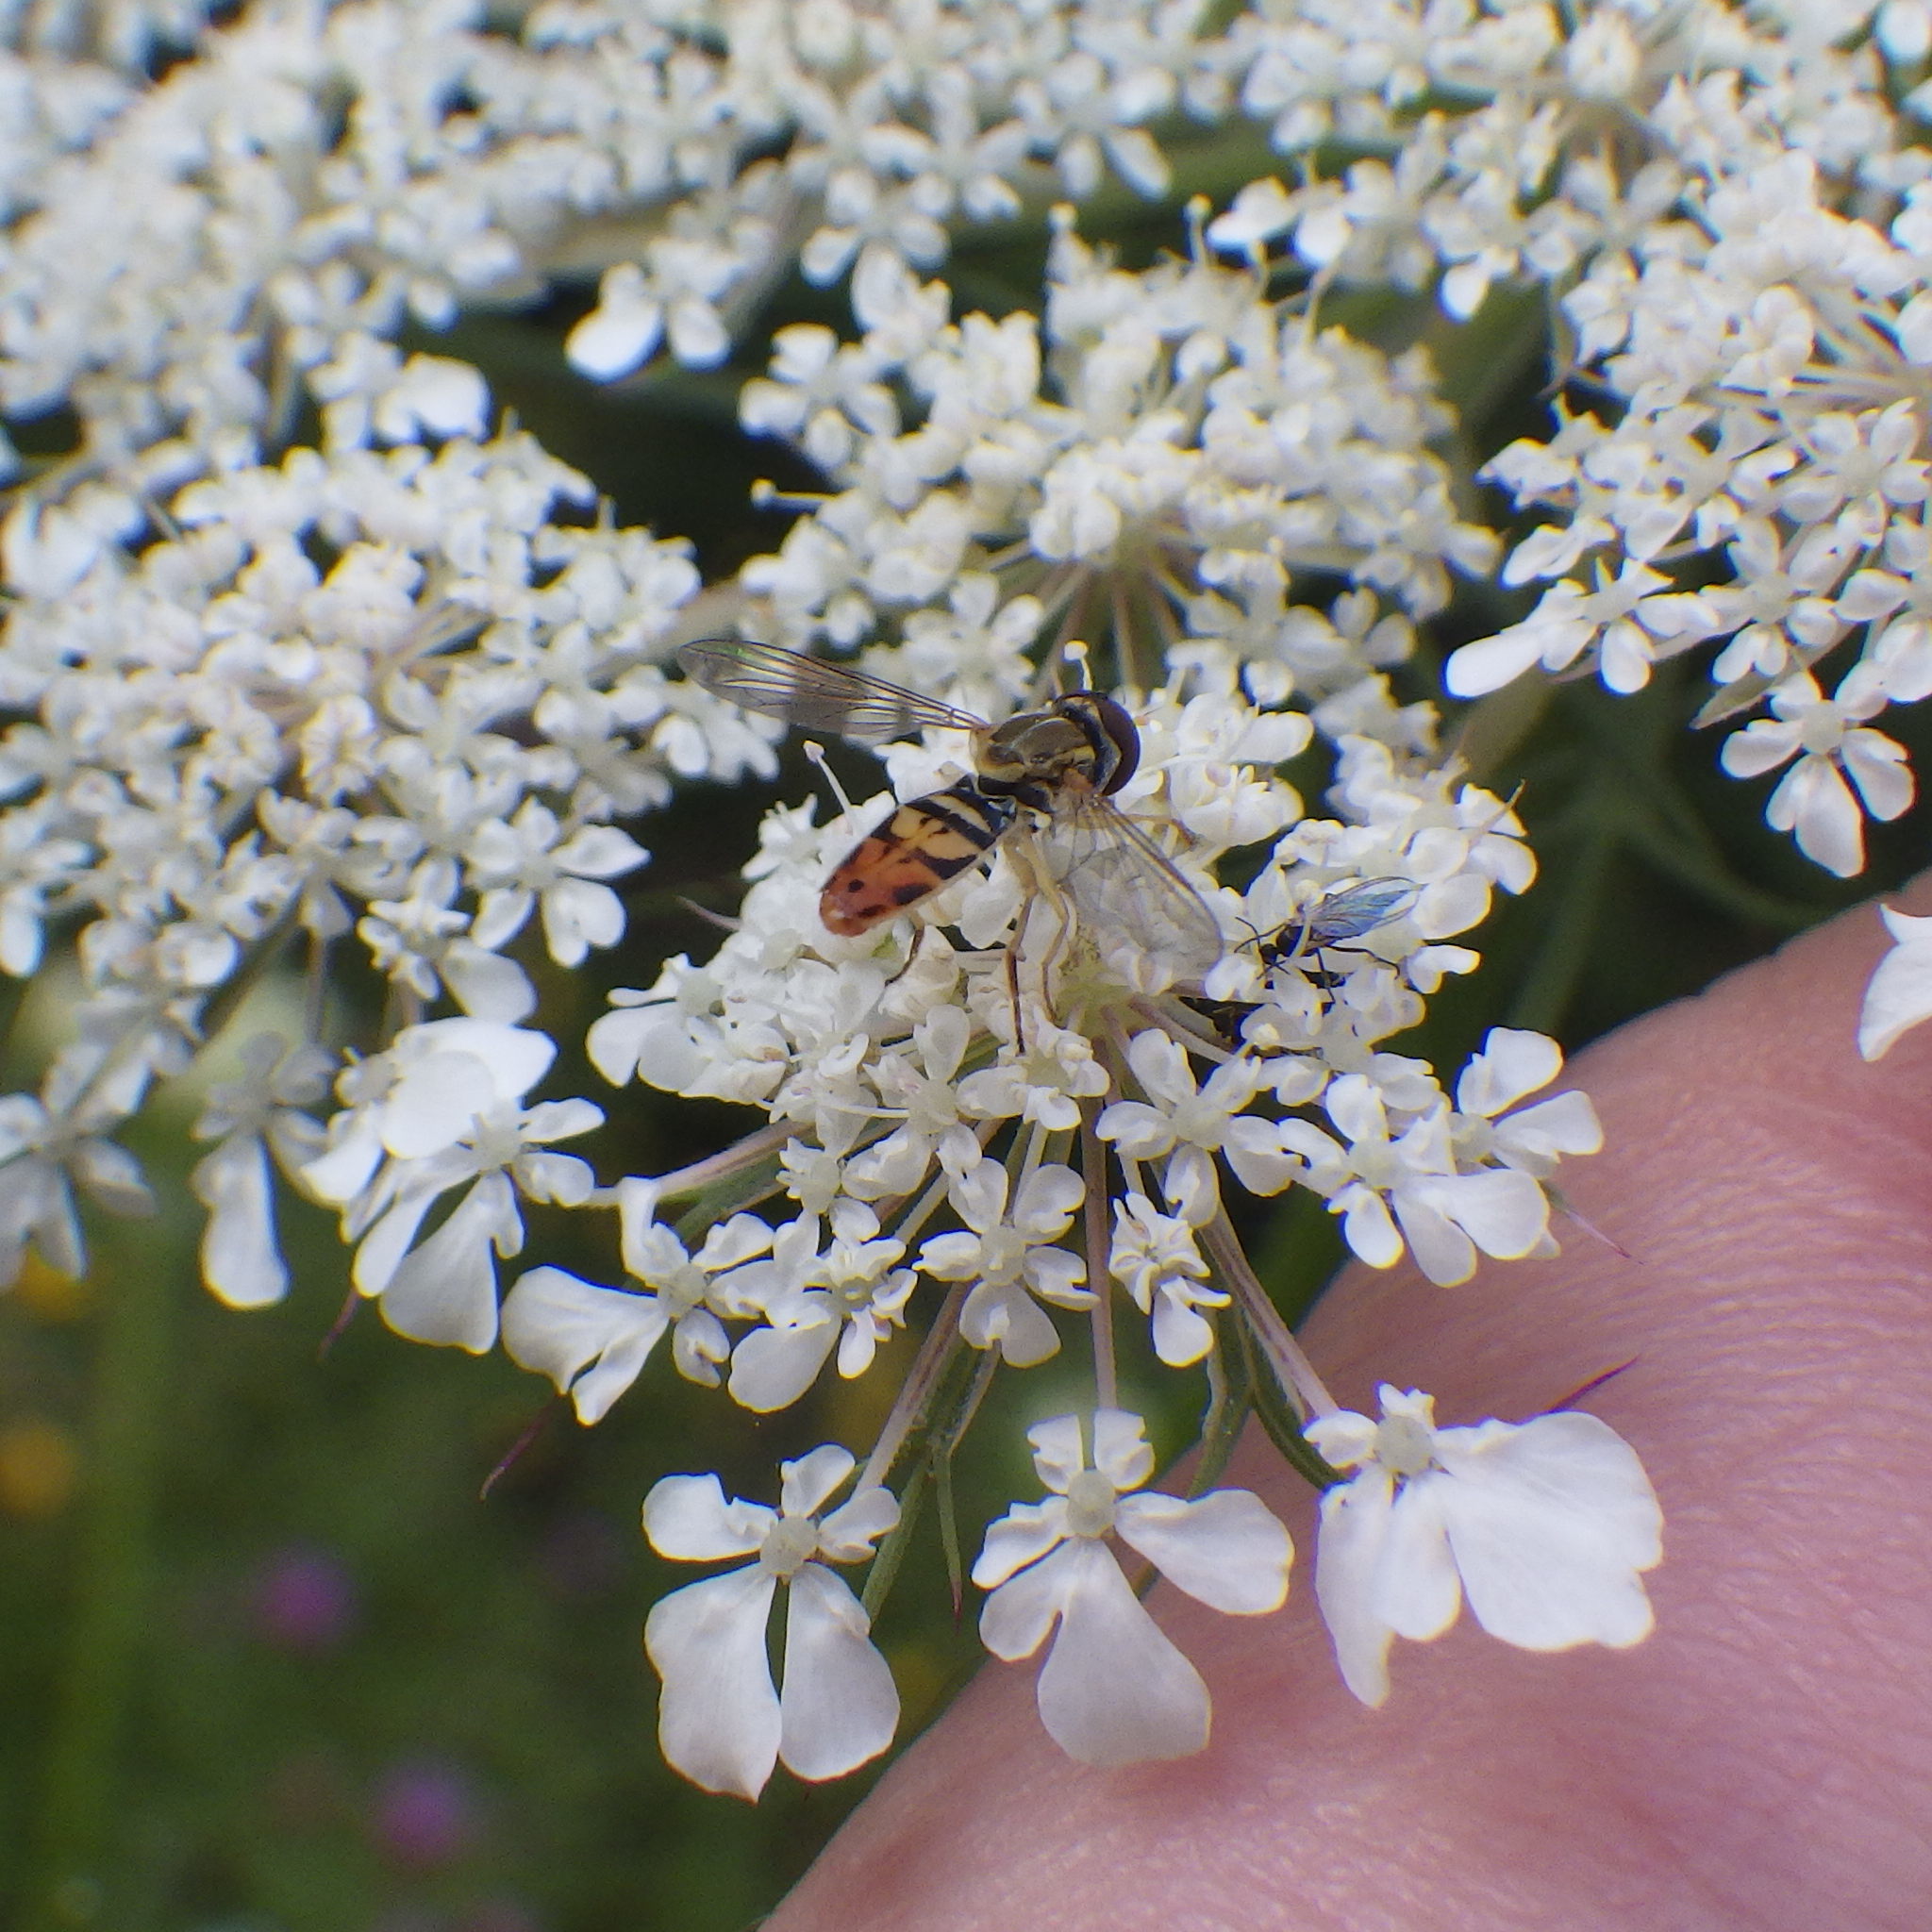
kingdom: Animalia
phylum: Arthropoda
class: Insecta
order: Diptera
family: Syrphidae
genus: Toxomerus
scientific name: Toxomerus marginatus
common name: Syrphid fly
